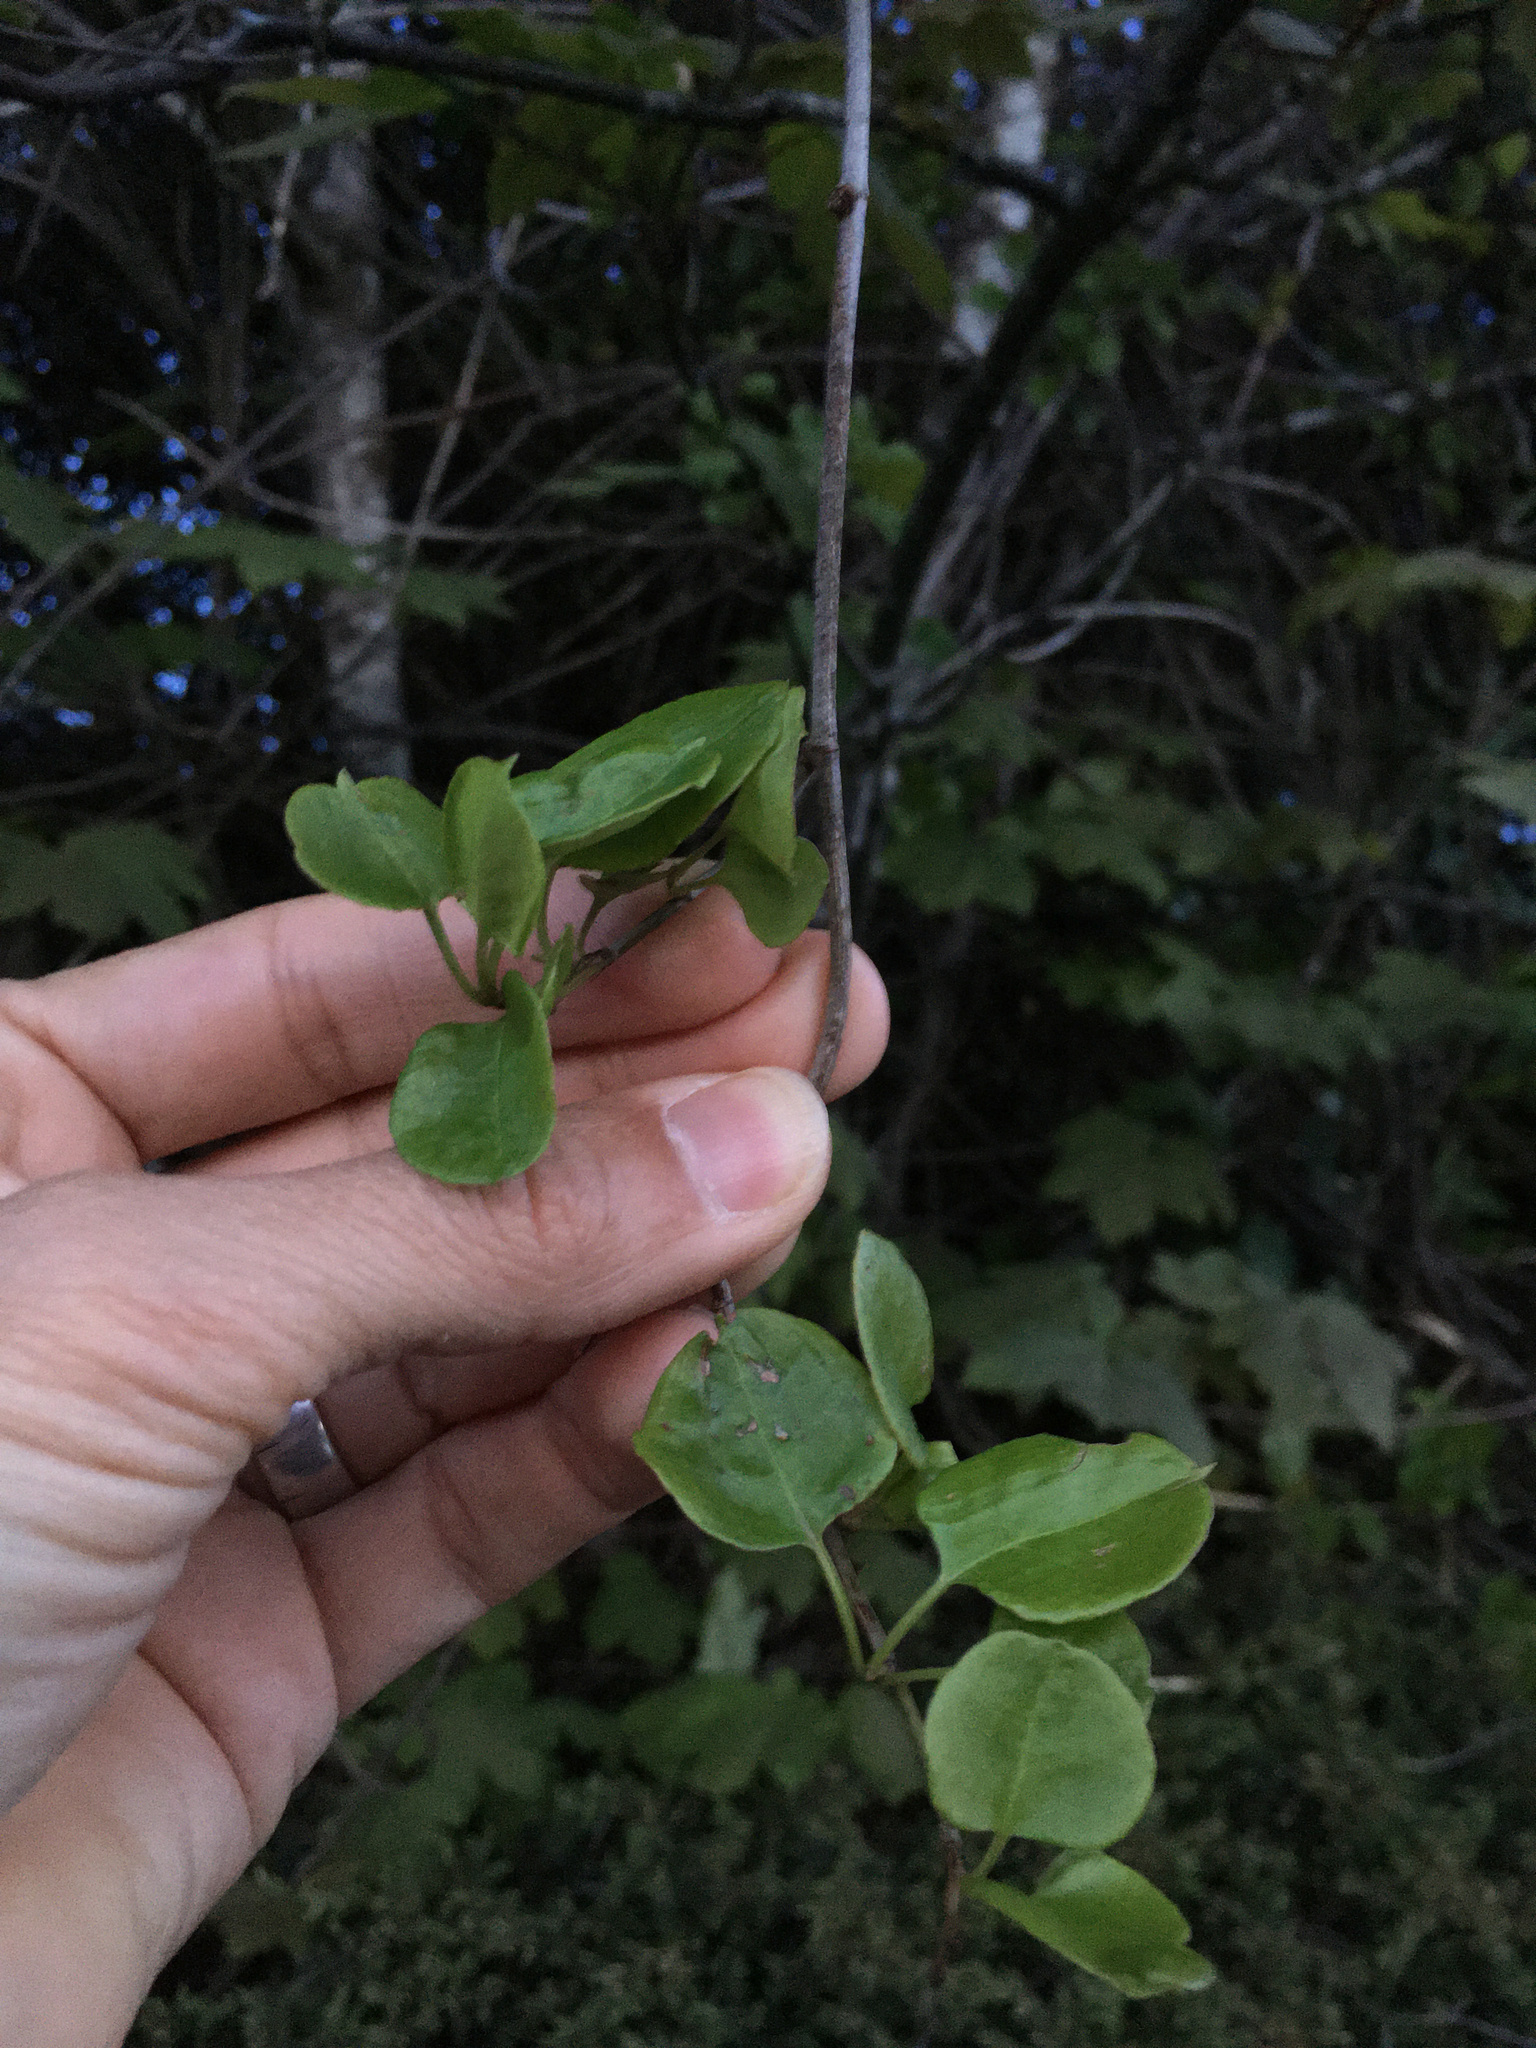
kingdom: Plantae
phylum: Tracheophyta
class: Magnoliopsida
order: Caryophyllales
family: Polygonaceae
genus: Muehlenbeckia
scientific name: Muehlenbeckia australis
